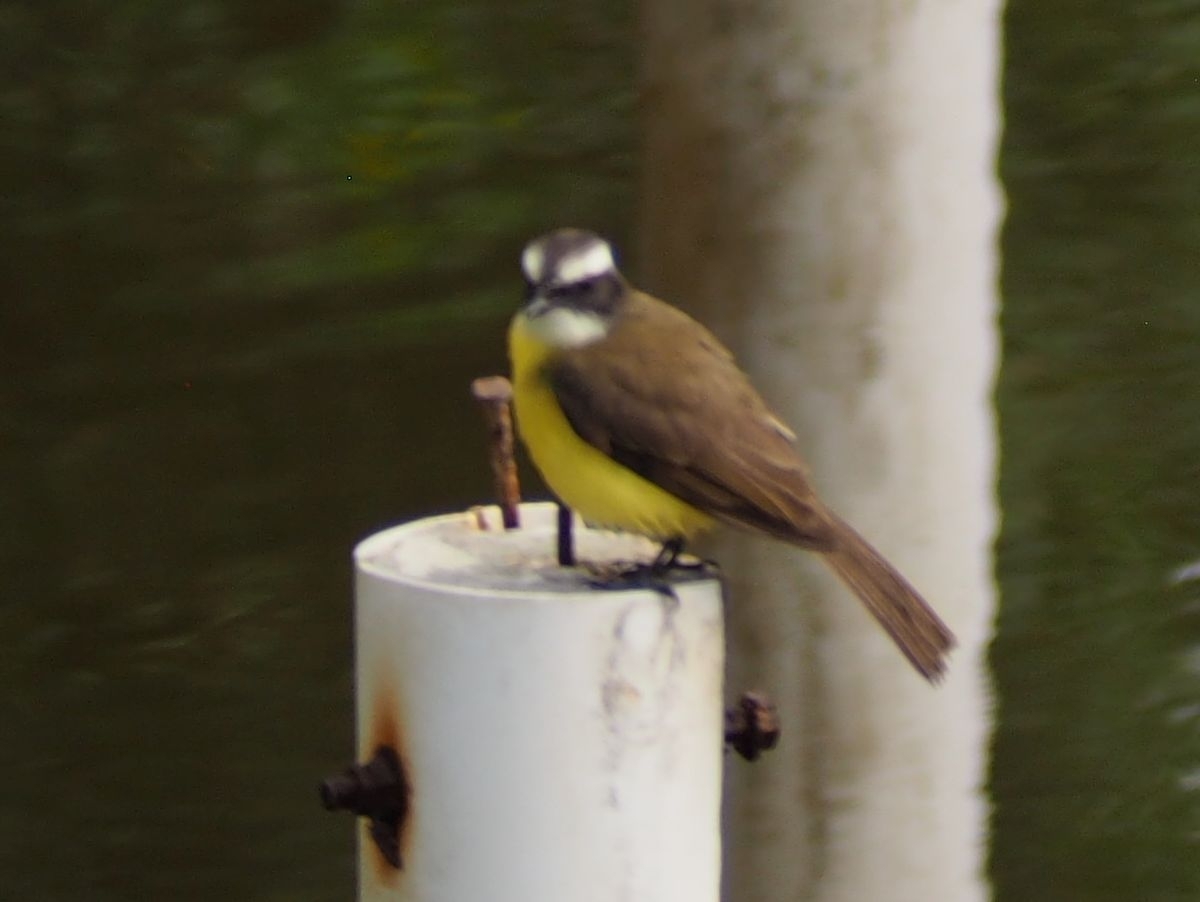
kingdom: Animalia
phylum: Chordata
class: Aves
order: Passeriformes
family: Tyrannidae
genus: Myiozetetes
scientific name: Myiozetetes similis
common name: Social flycatcher
